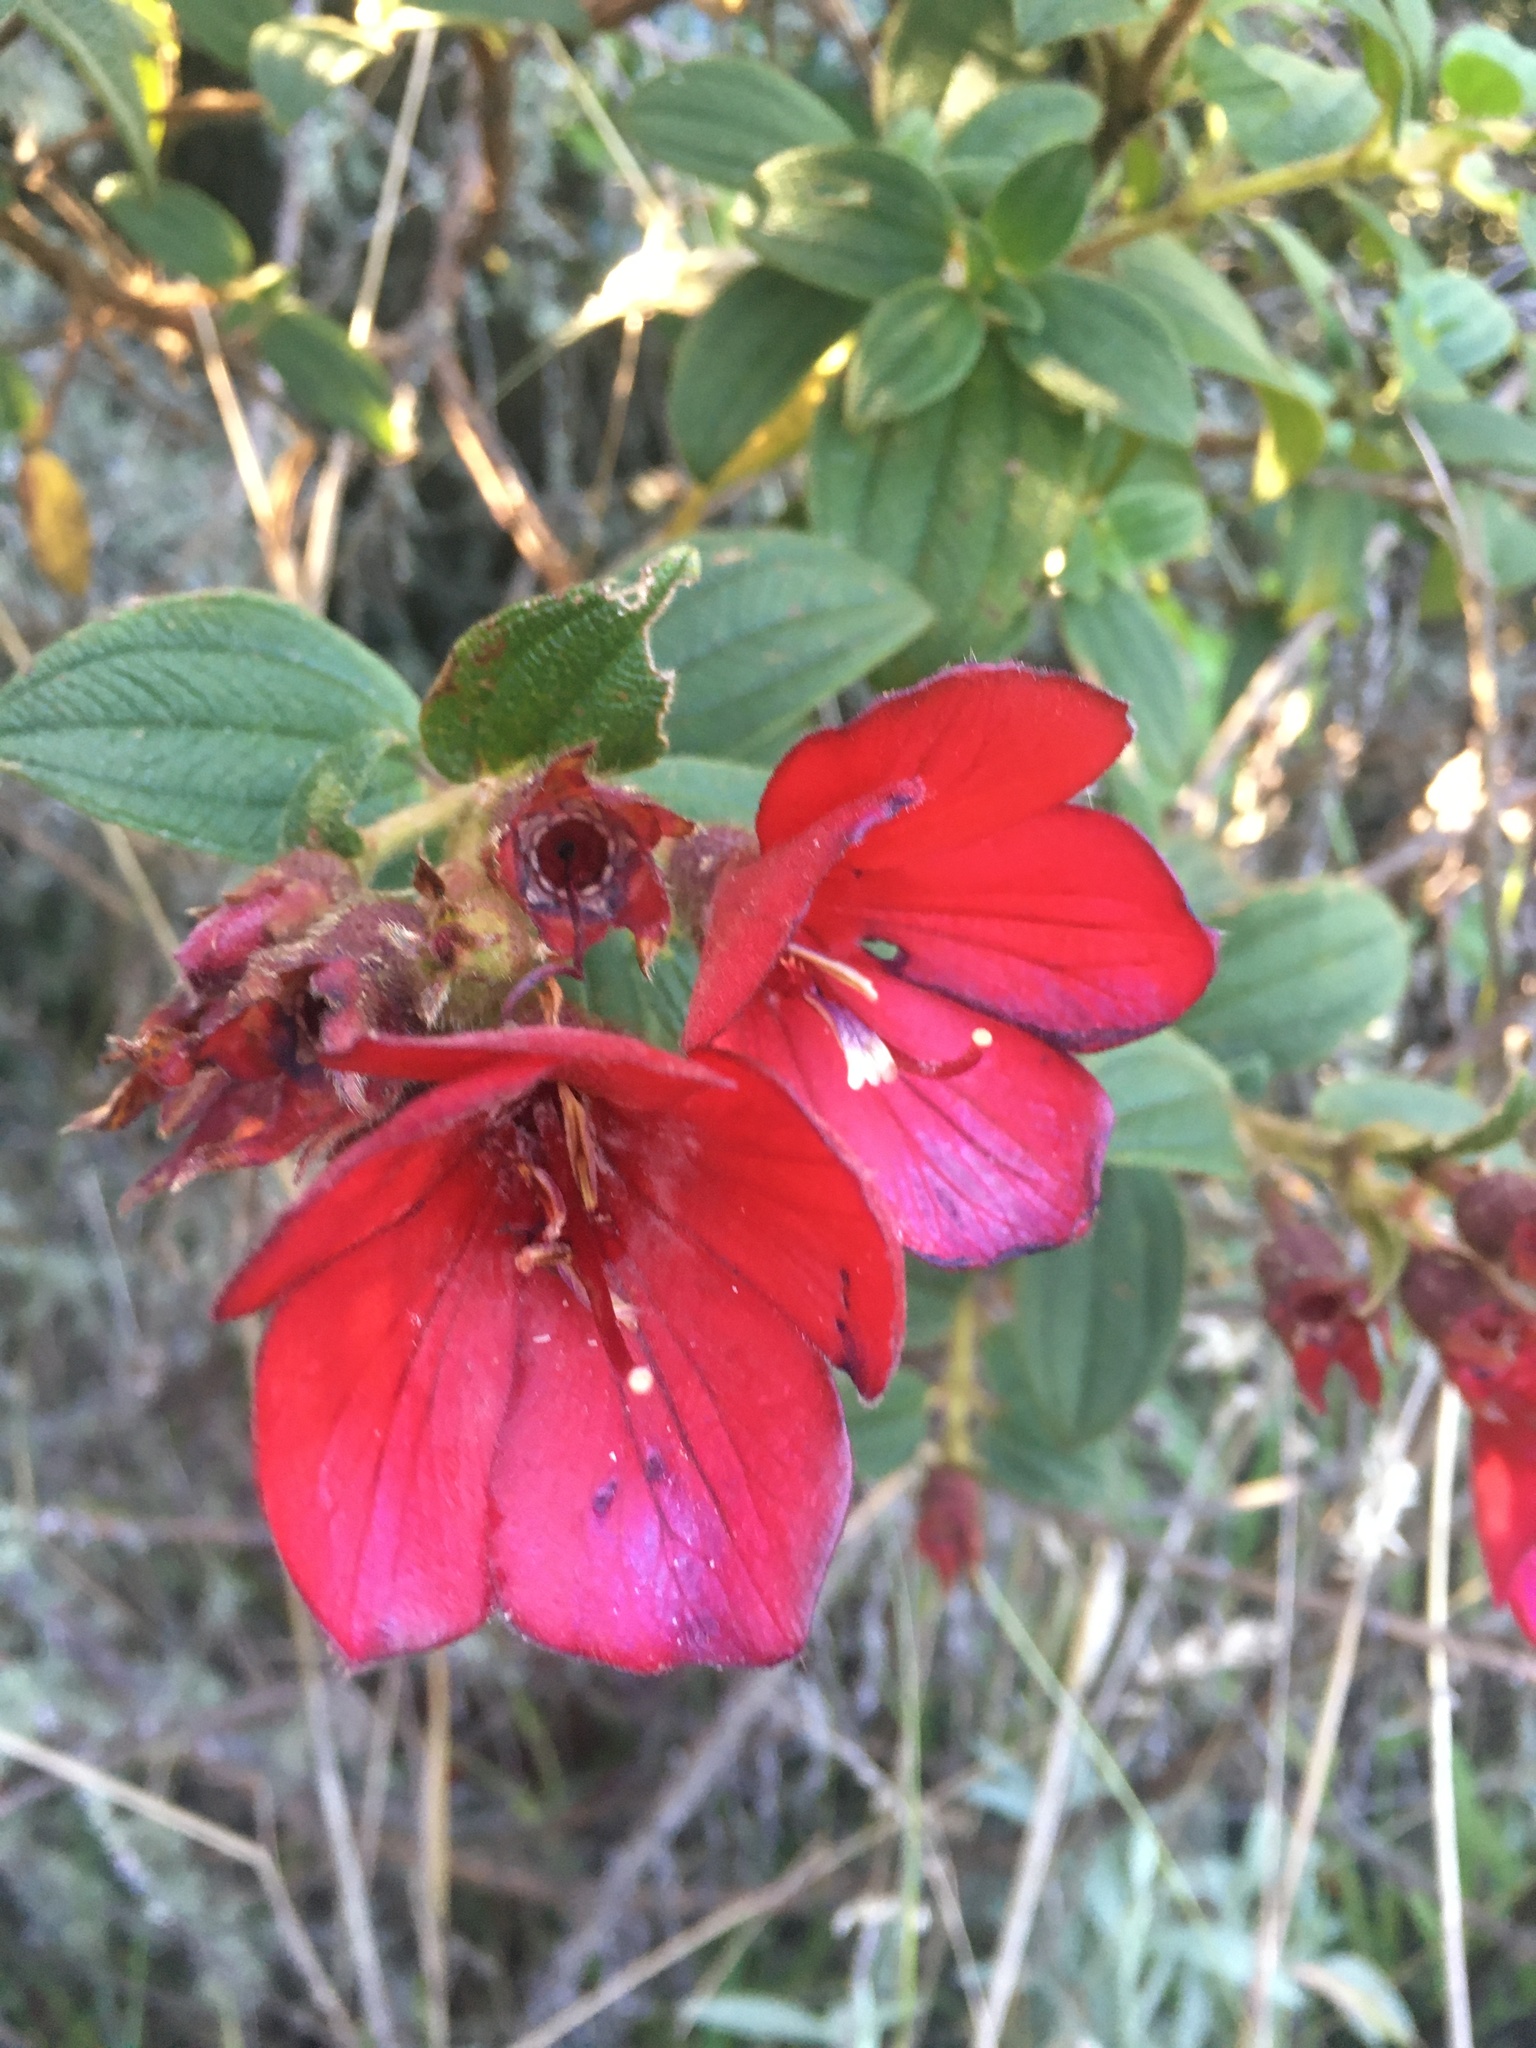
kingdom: Plantae
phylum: Tracheophyta
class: Magnoliopsida
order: Myrtales
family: Melastomataceae
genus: Chaetogastra
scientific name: Chaetogastra grossa
